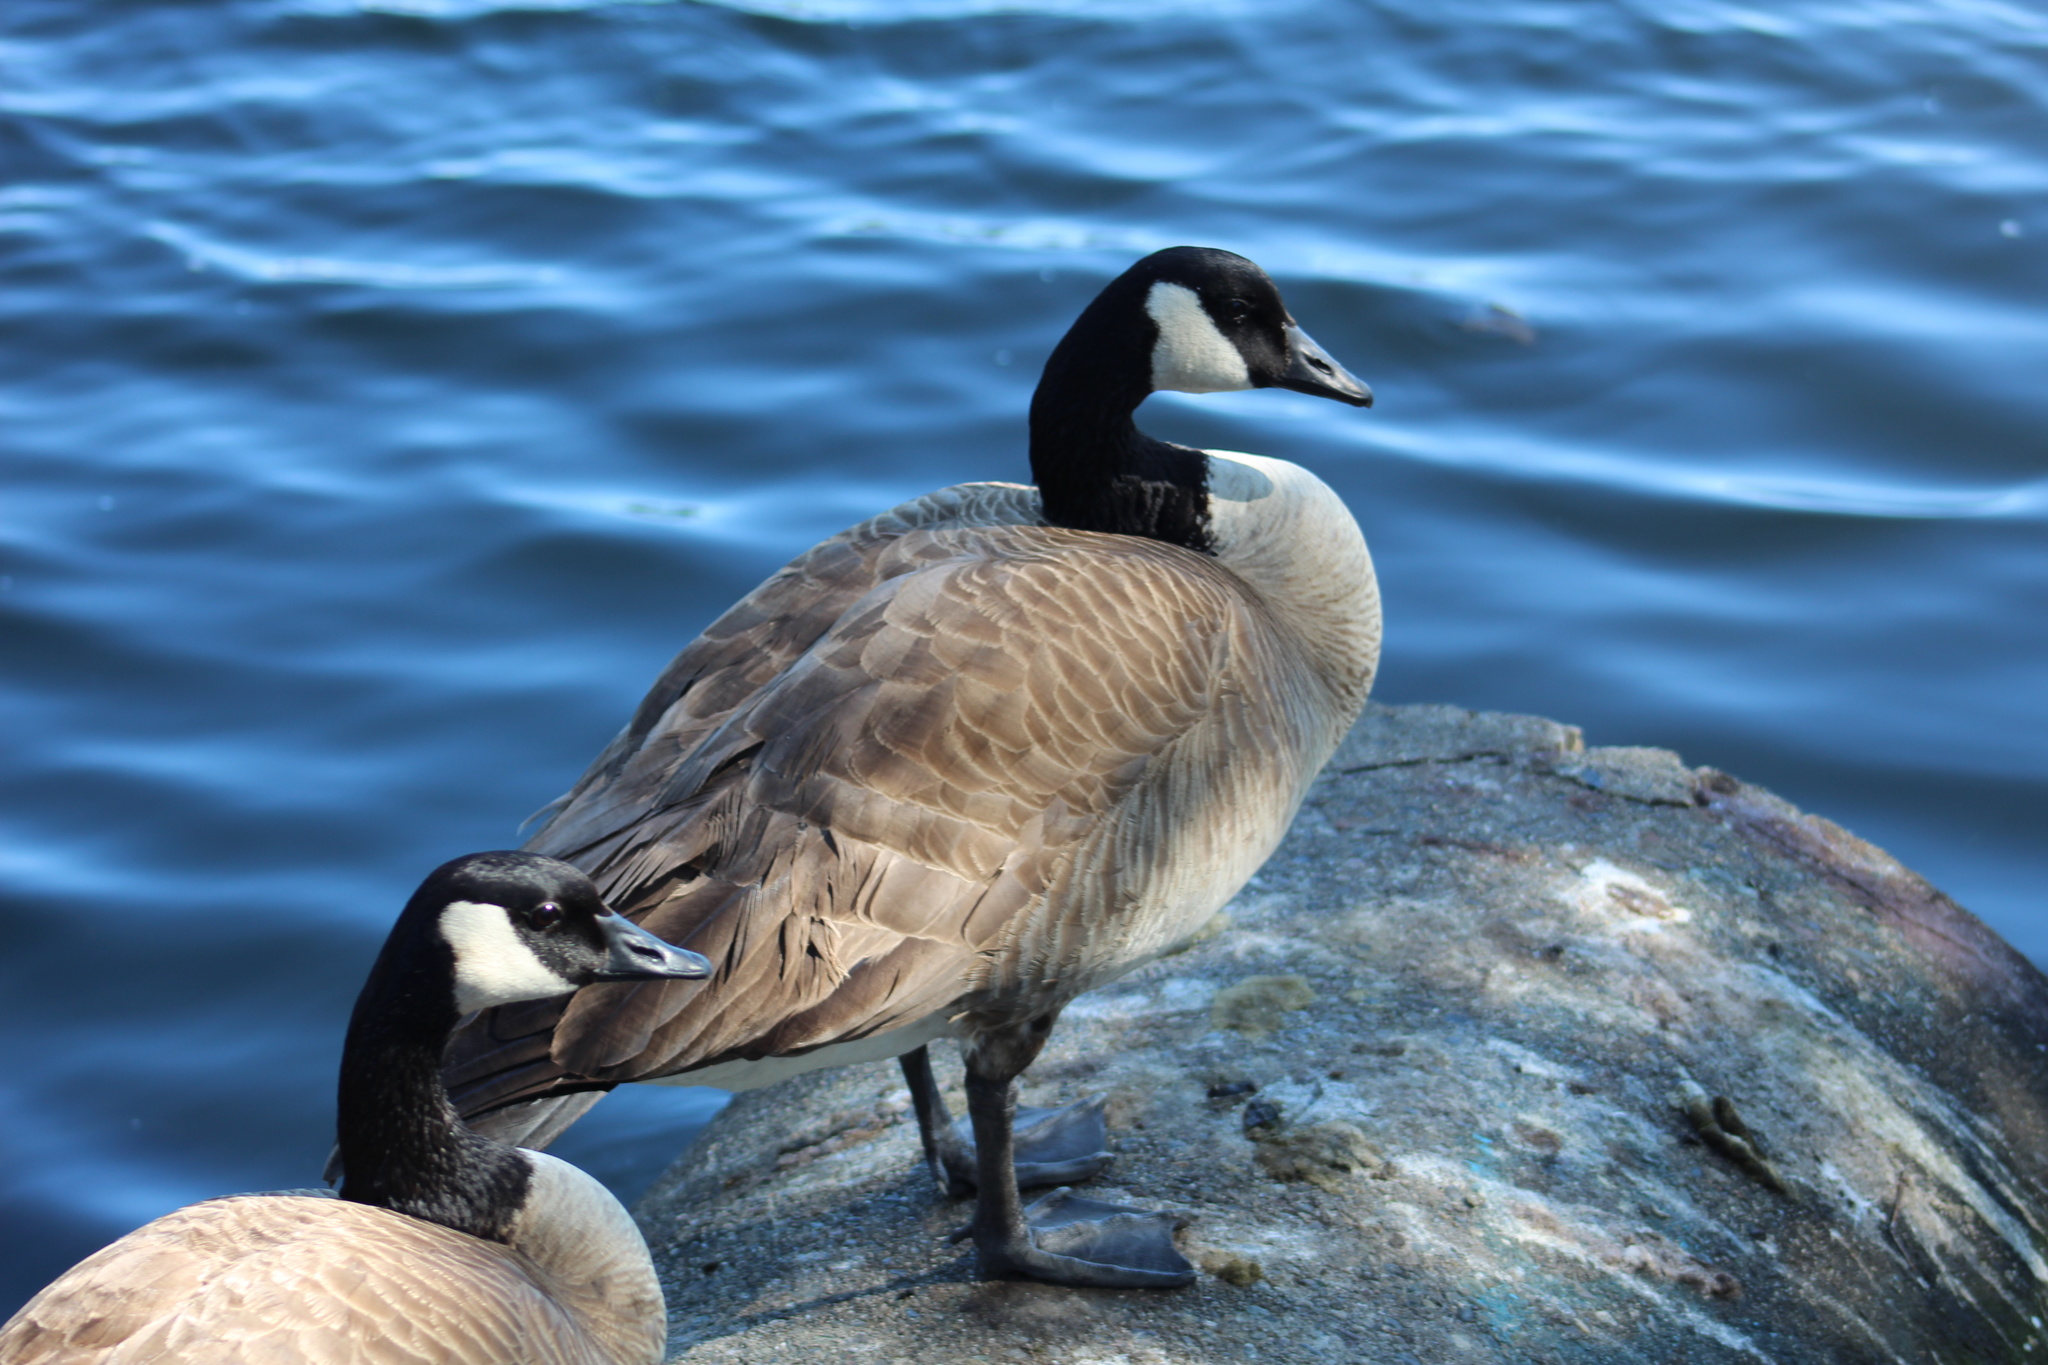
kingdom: Animalia
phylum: Chordata
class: Aves
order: Anseriformes
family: Anatidae
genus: Branta
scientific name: Branta canadensis
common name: Canada goose
